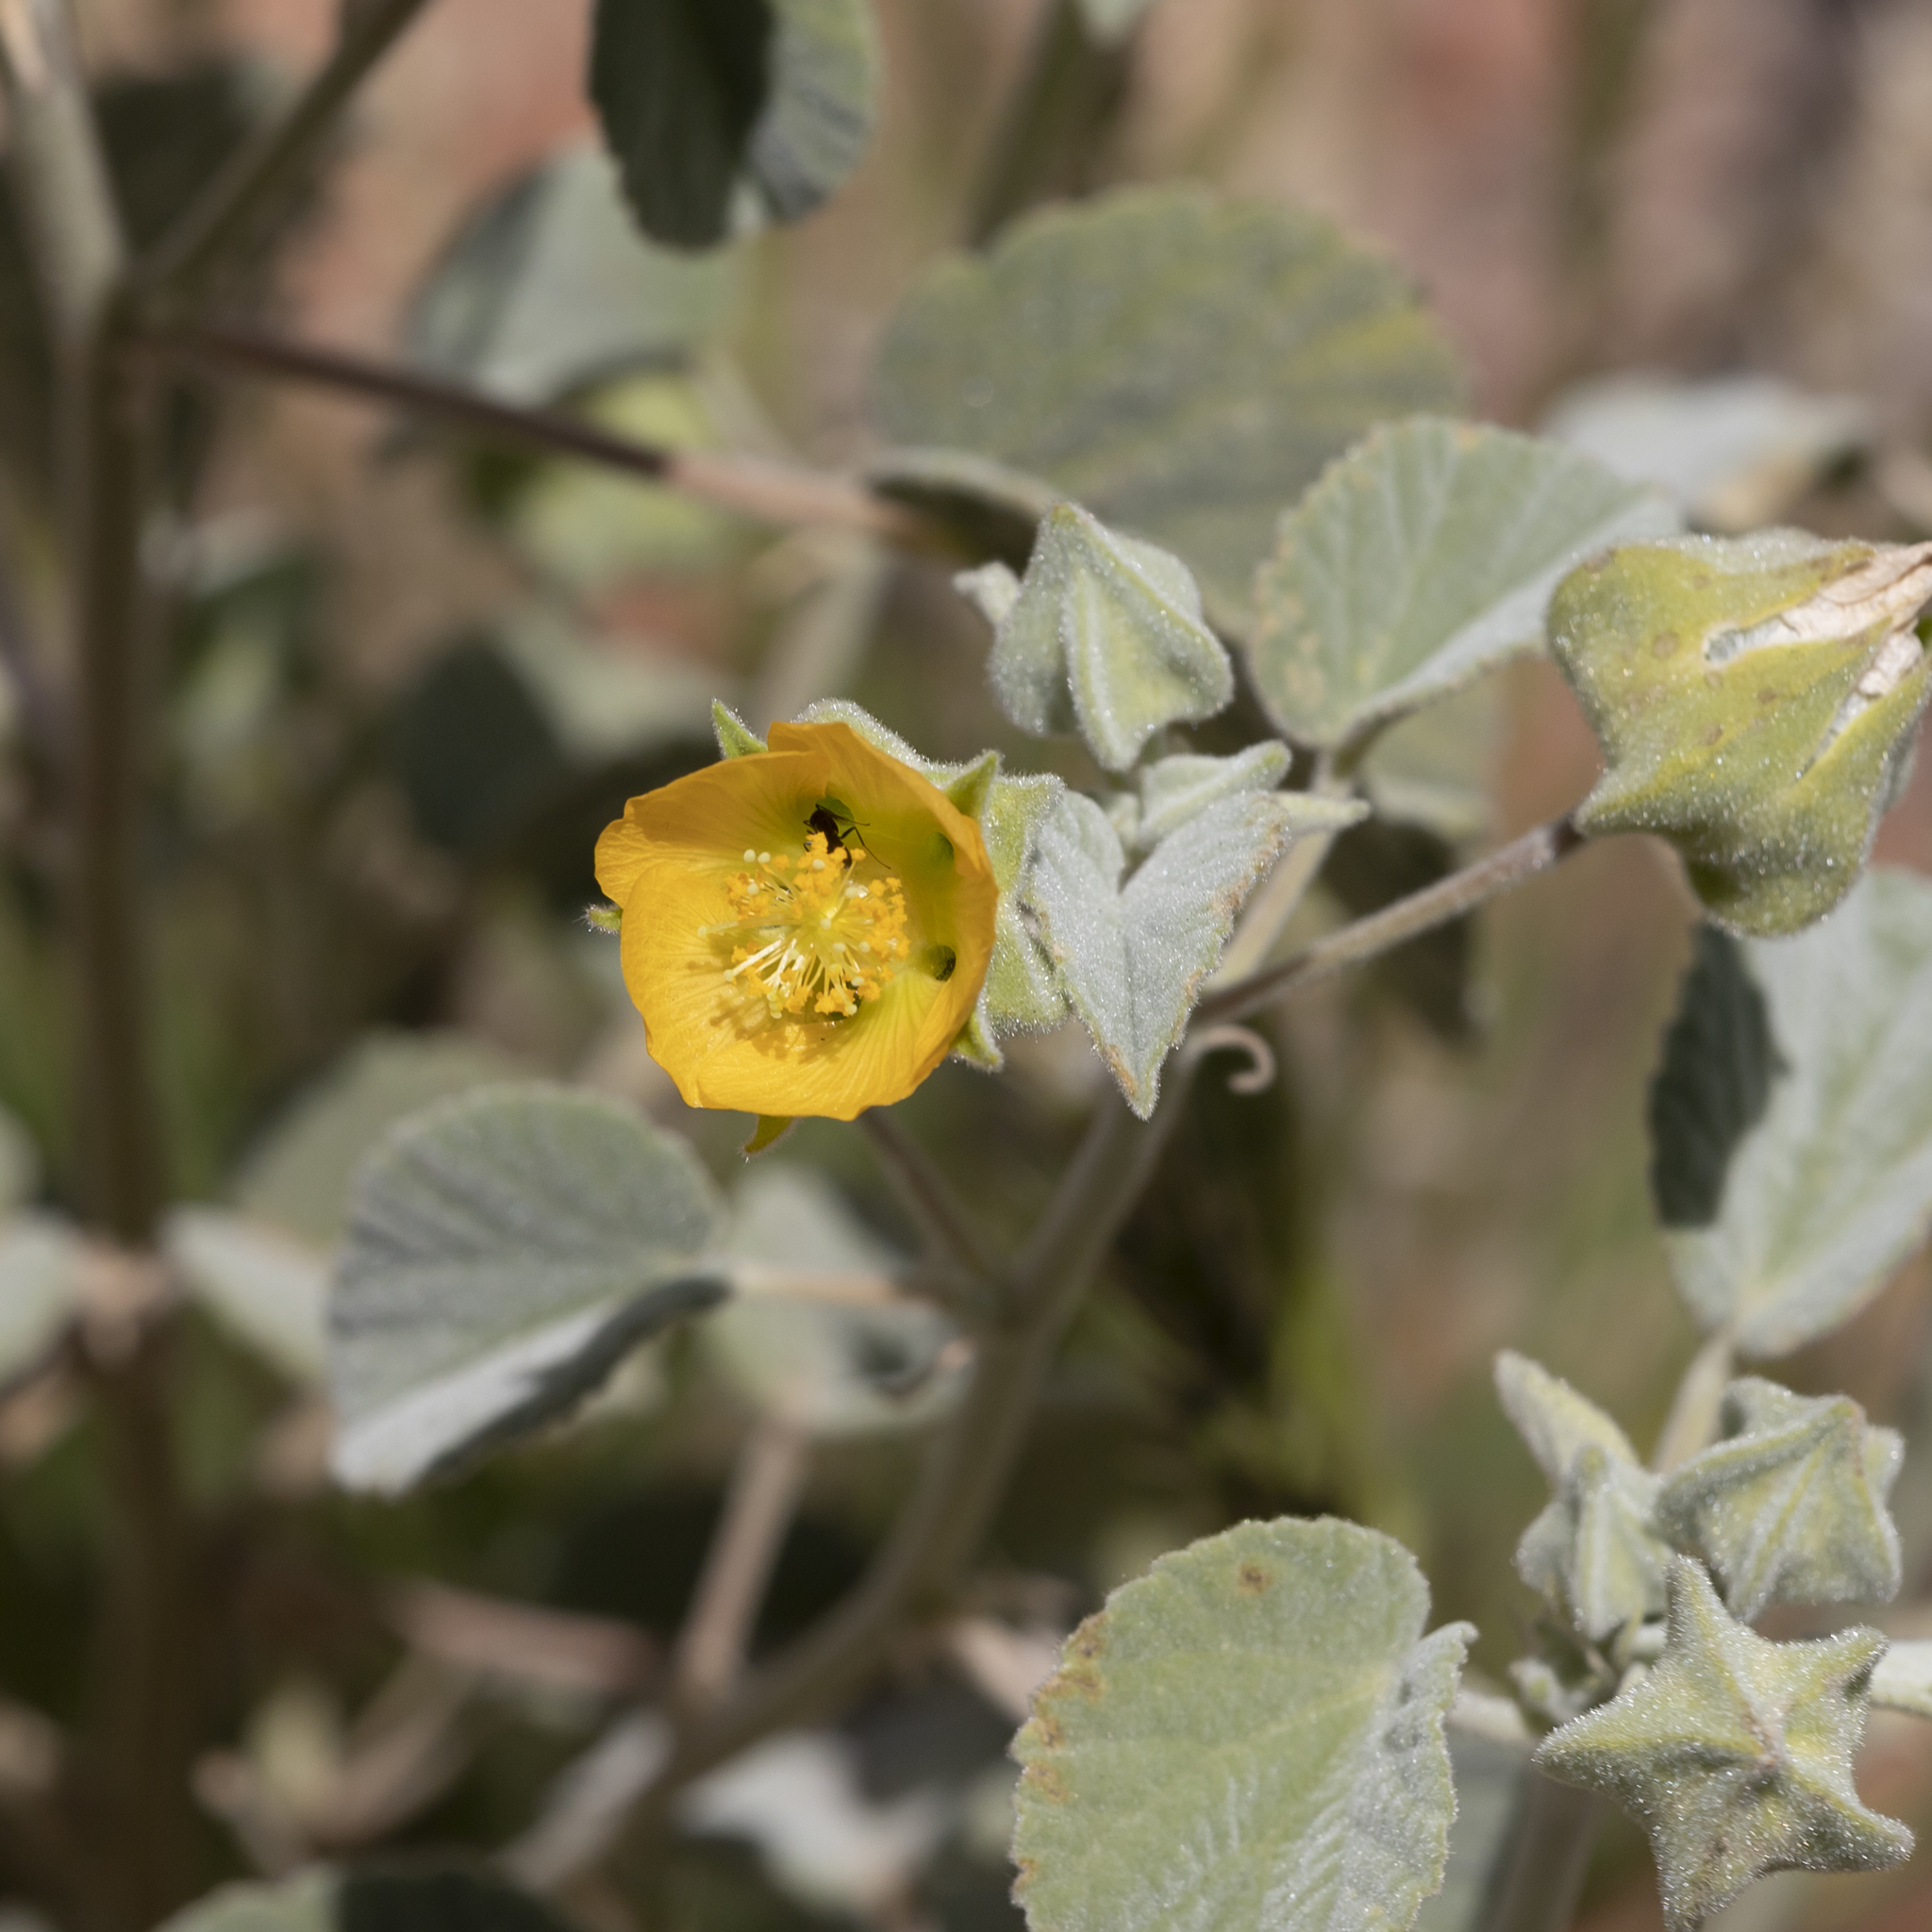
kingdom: Plantae
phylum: Tracheophyta
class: Magnoliopsida
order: Malvales
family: Malvaceae
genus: Abutilon
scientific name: Abutilon otocarpum
